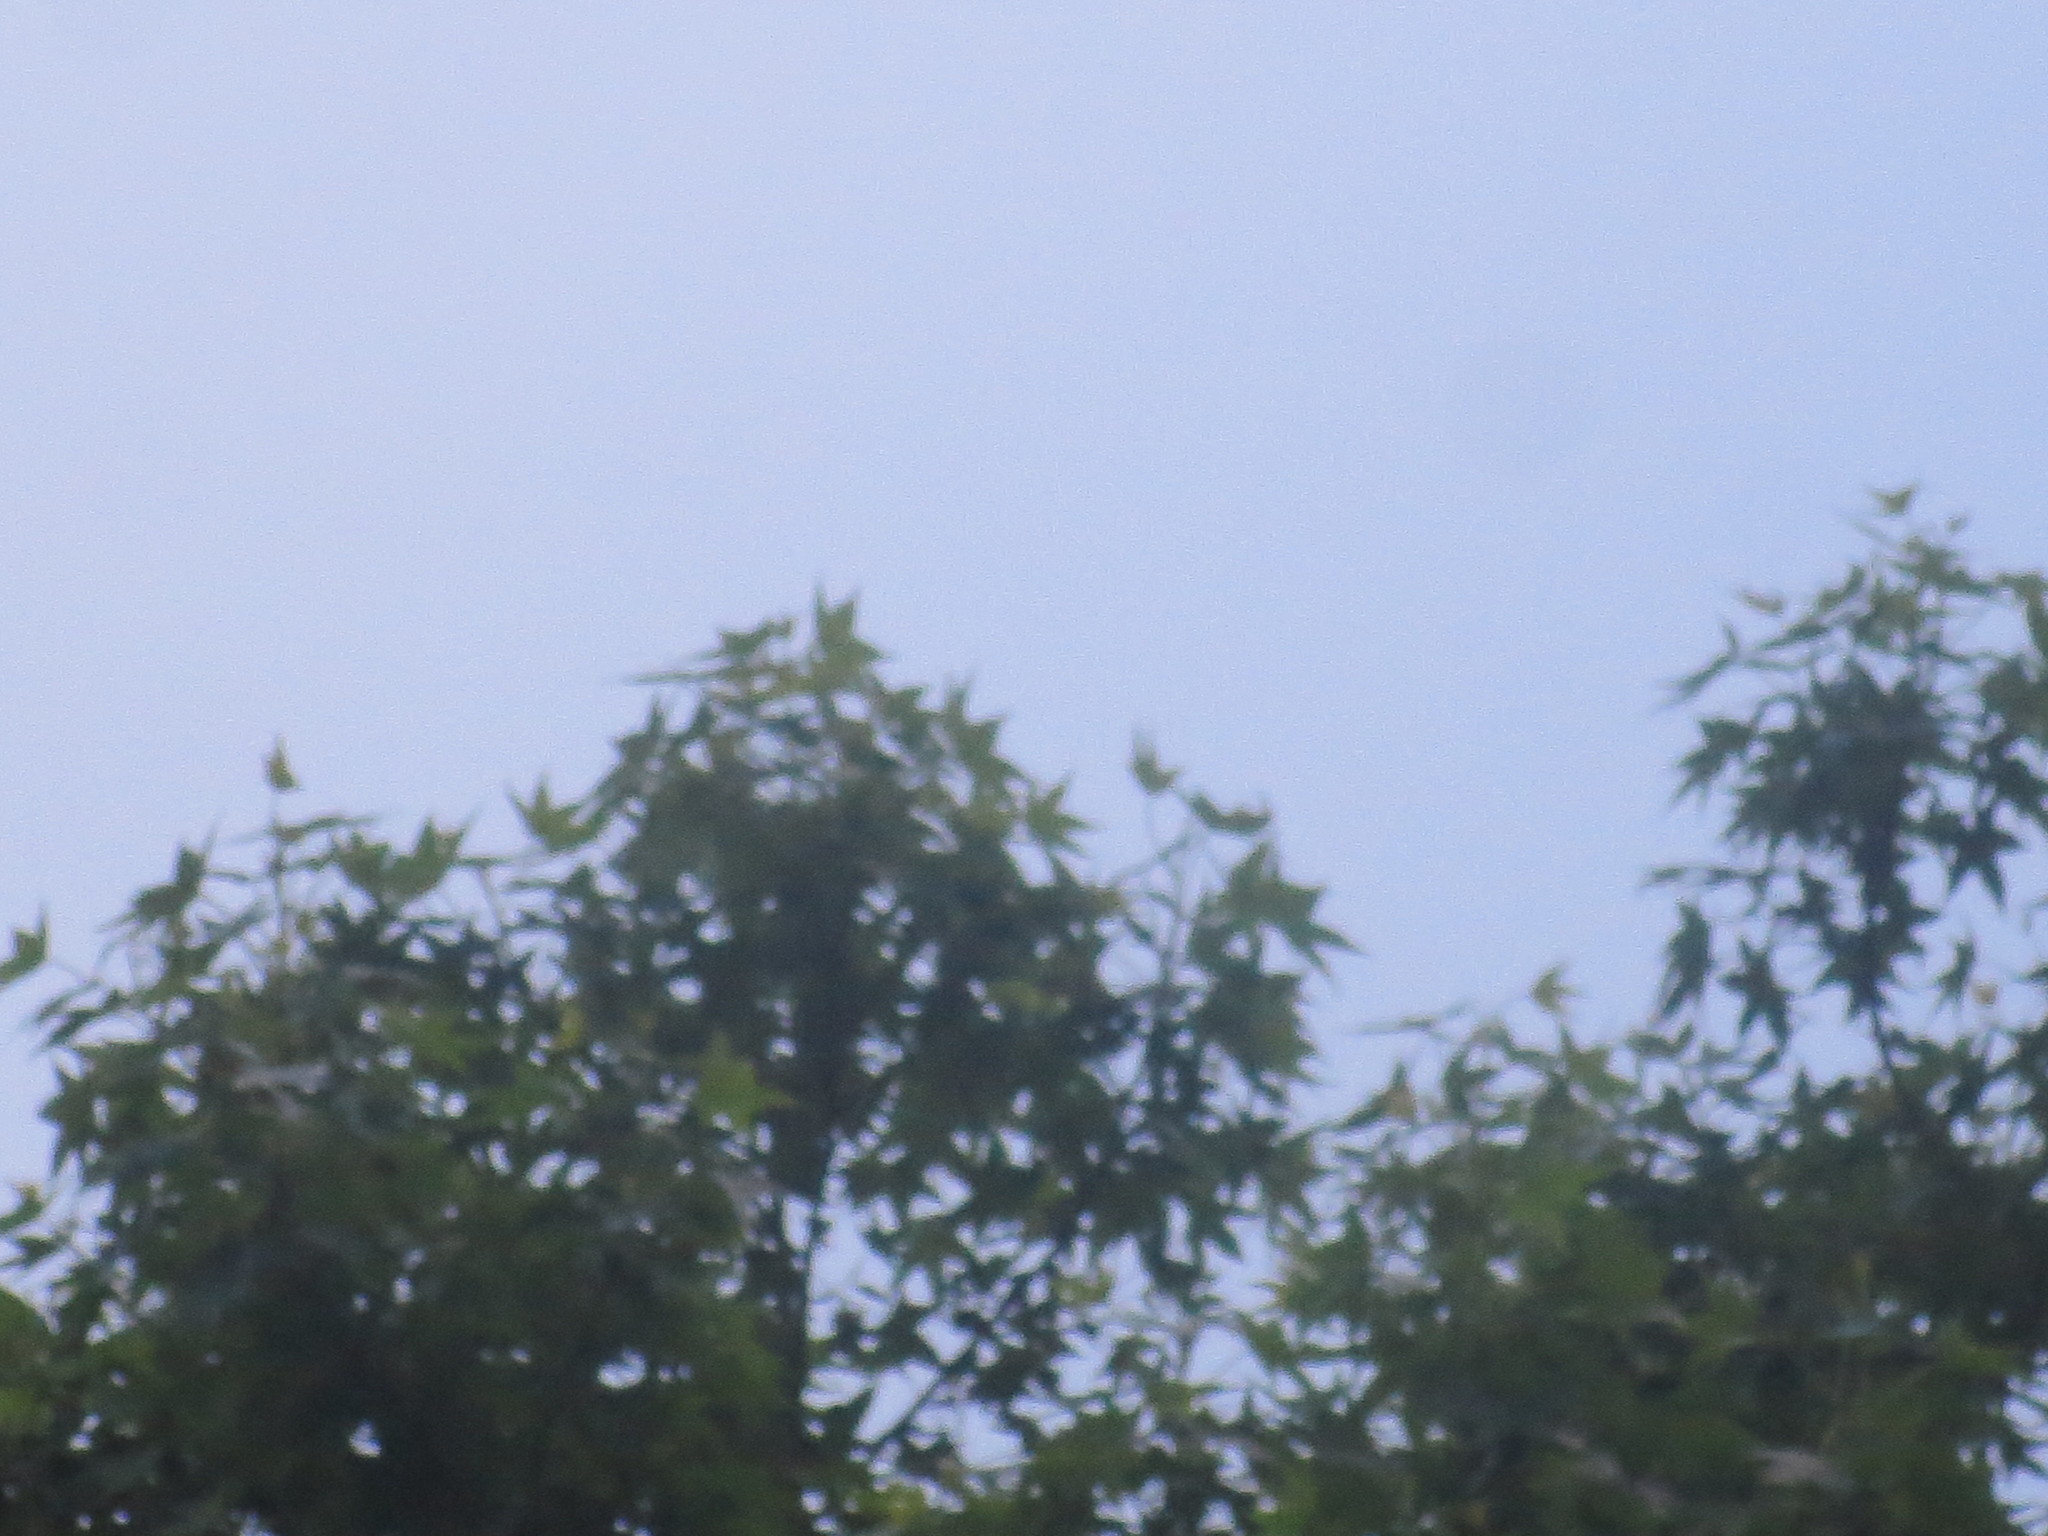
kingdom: Plantae
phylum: Tracheophyta
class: Magnoliopsida
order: Saxifragales
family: Altingiaceae
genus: Liquidambar
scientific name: Liquidambar styraciflua
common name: Sweet gum
